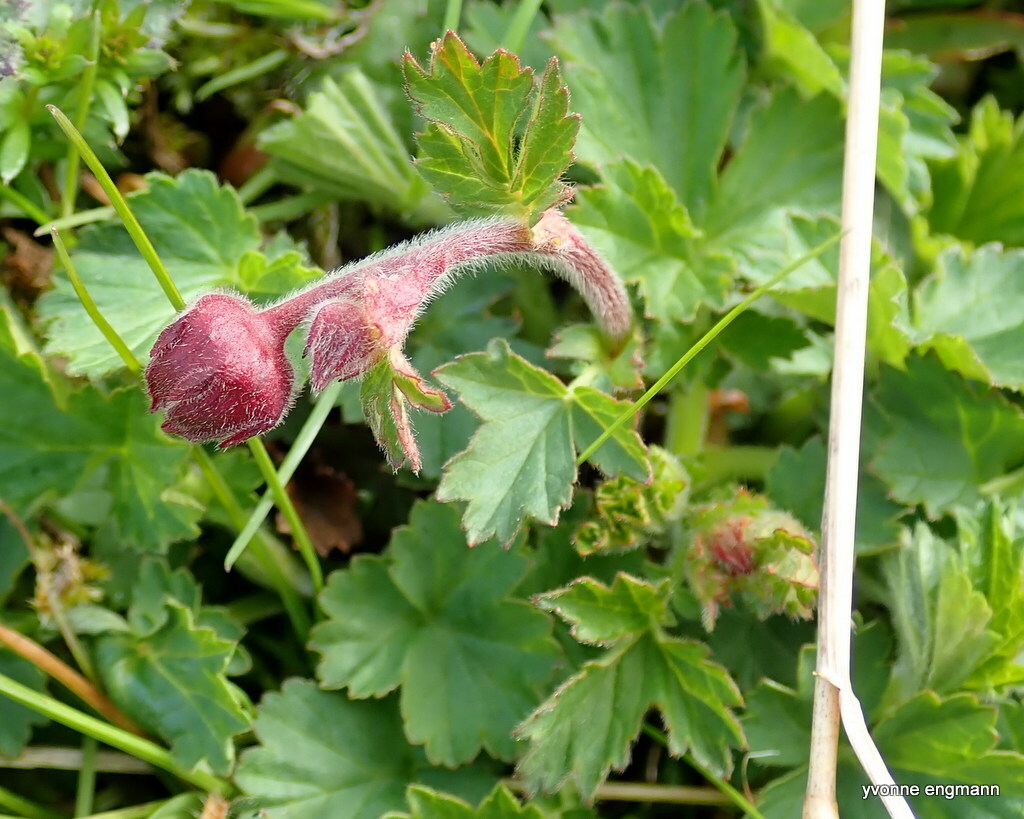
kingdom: Plantae
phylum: Tracheophyta
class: Magnoliopsida
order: Rosales
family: Rosaceae
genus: Geum
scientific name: Geum rivale
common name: Water avens
